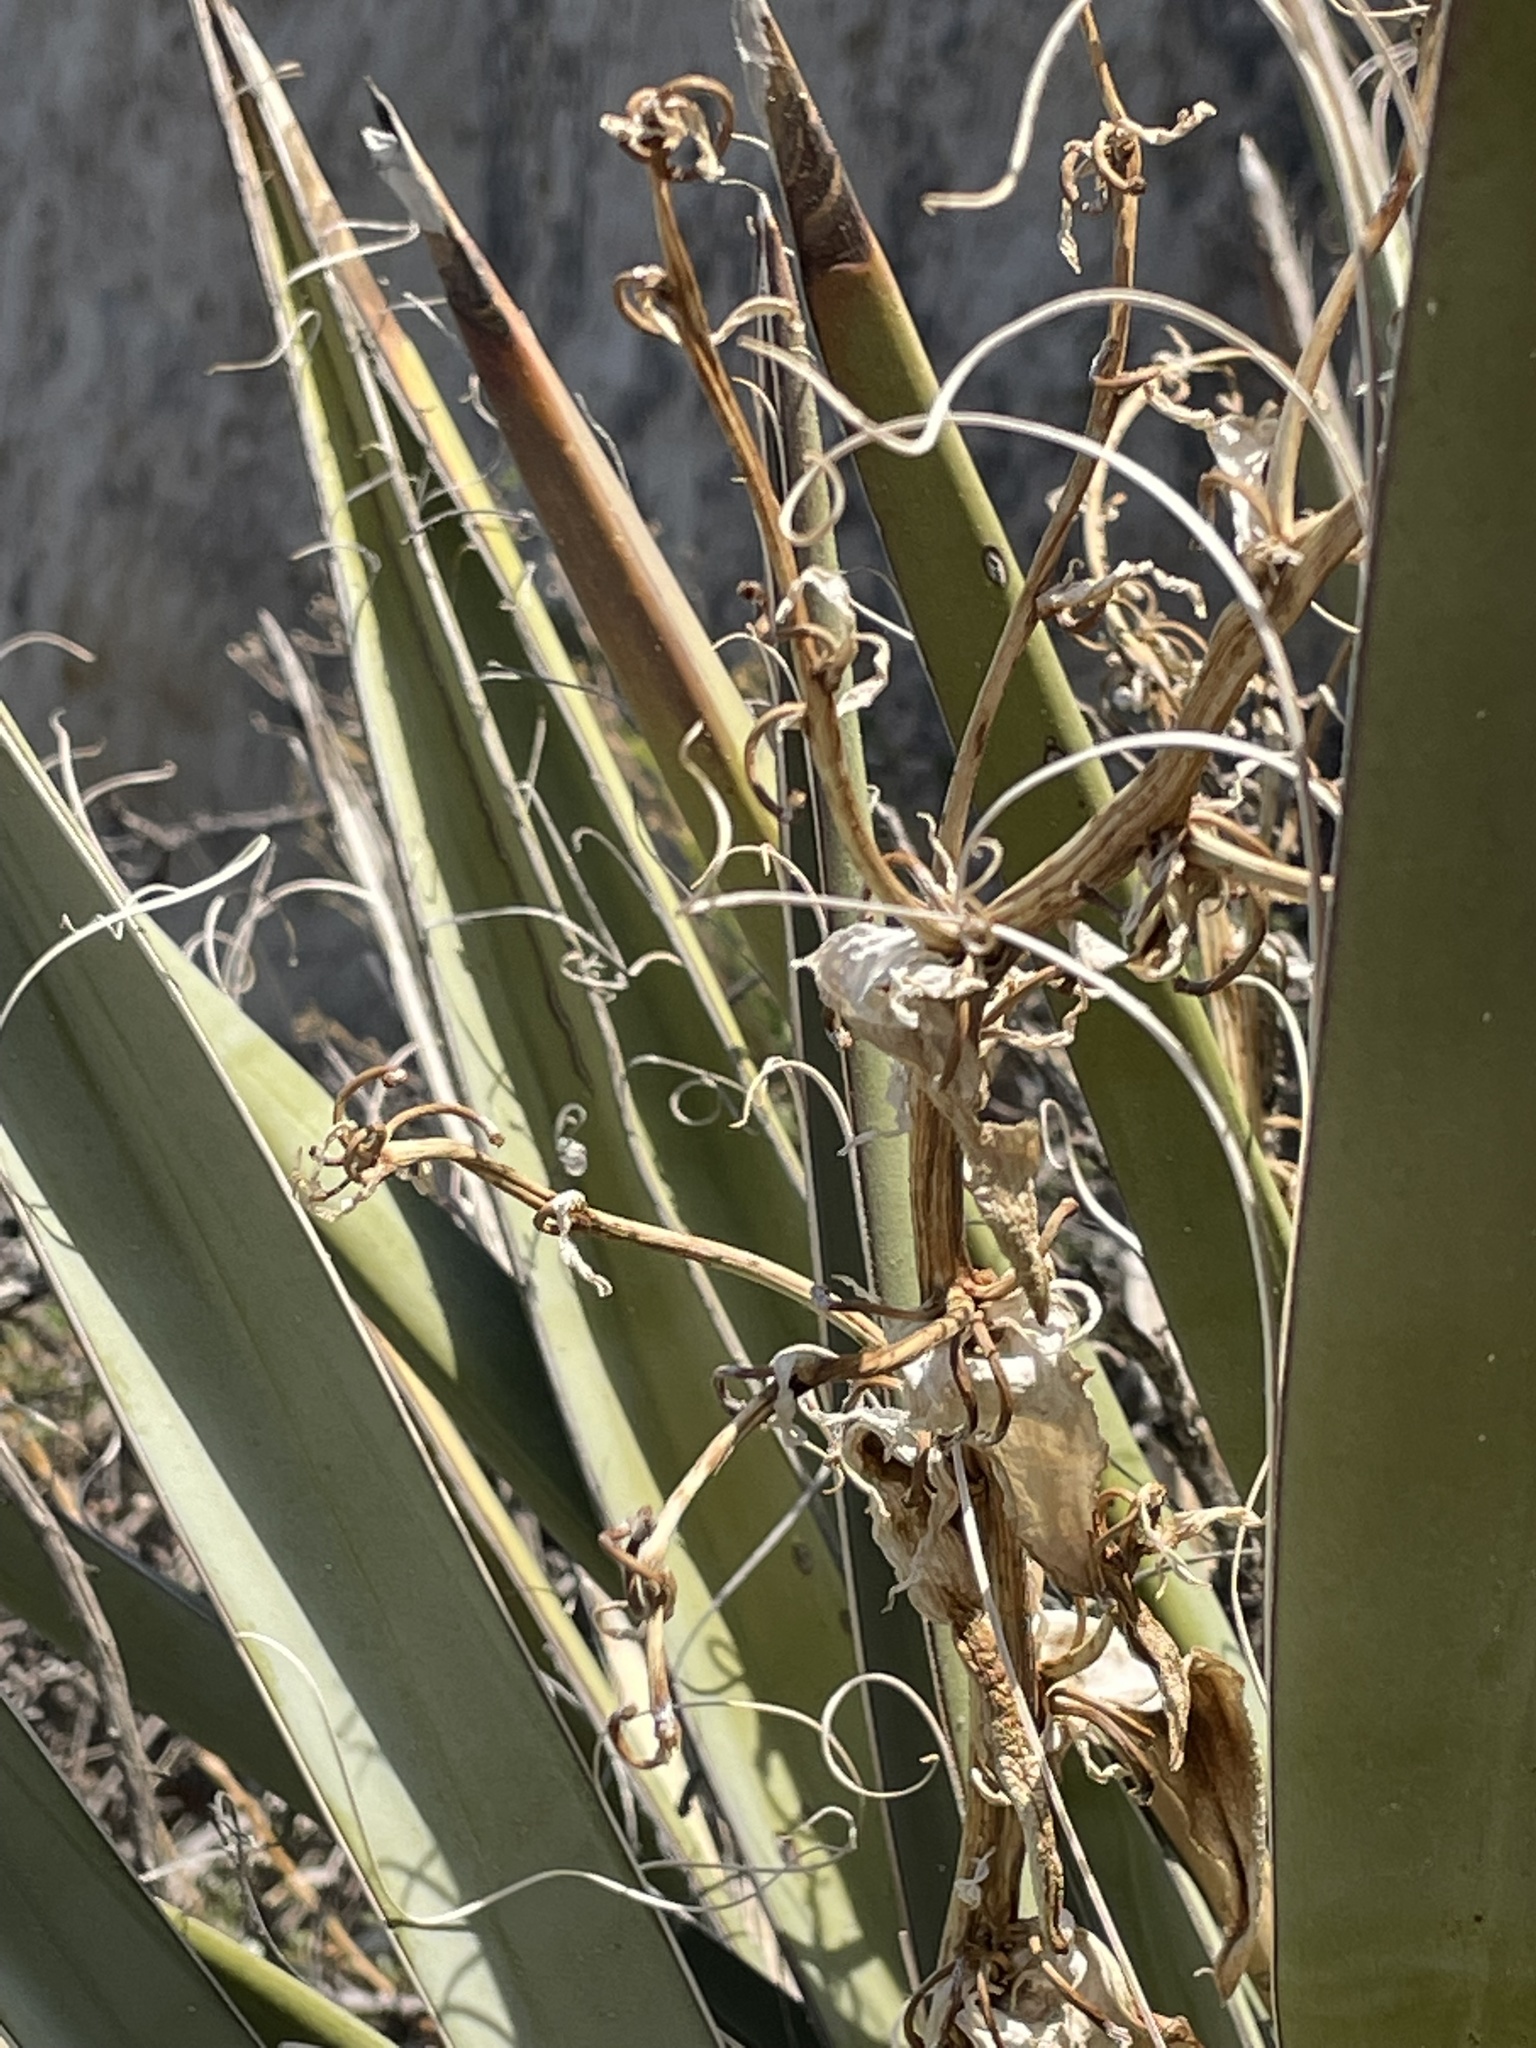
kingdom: Plantae
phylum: Tracheophyta
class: Liliopsida
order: Asparagales
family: Asparagaceae
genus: Yucca
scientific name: Yucca baccata
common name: Banana yucca
